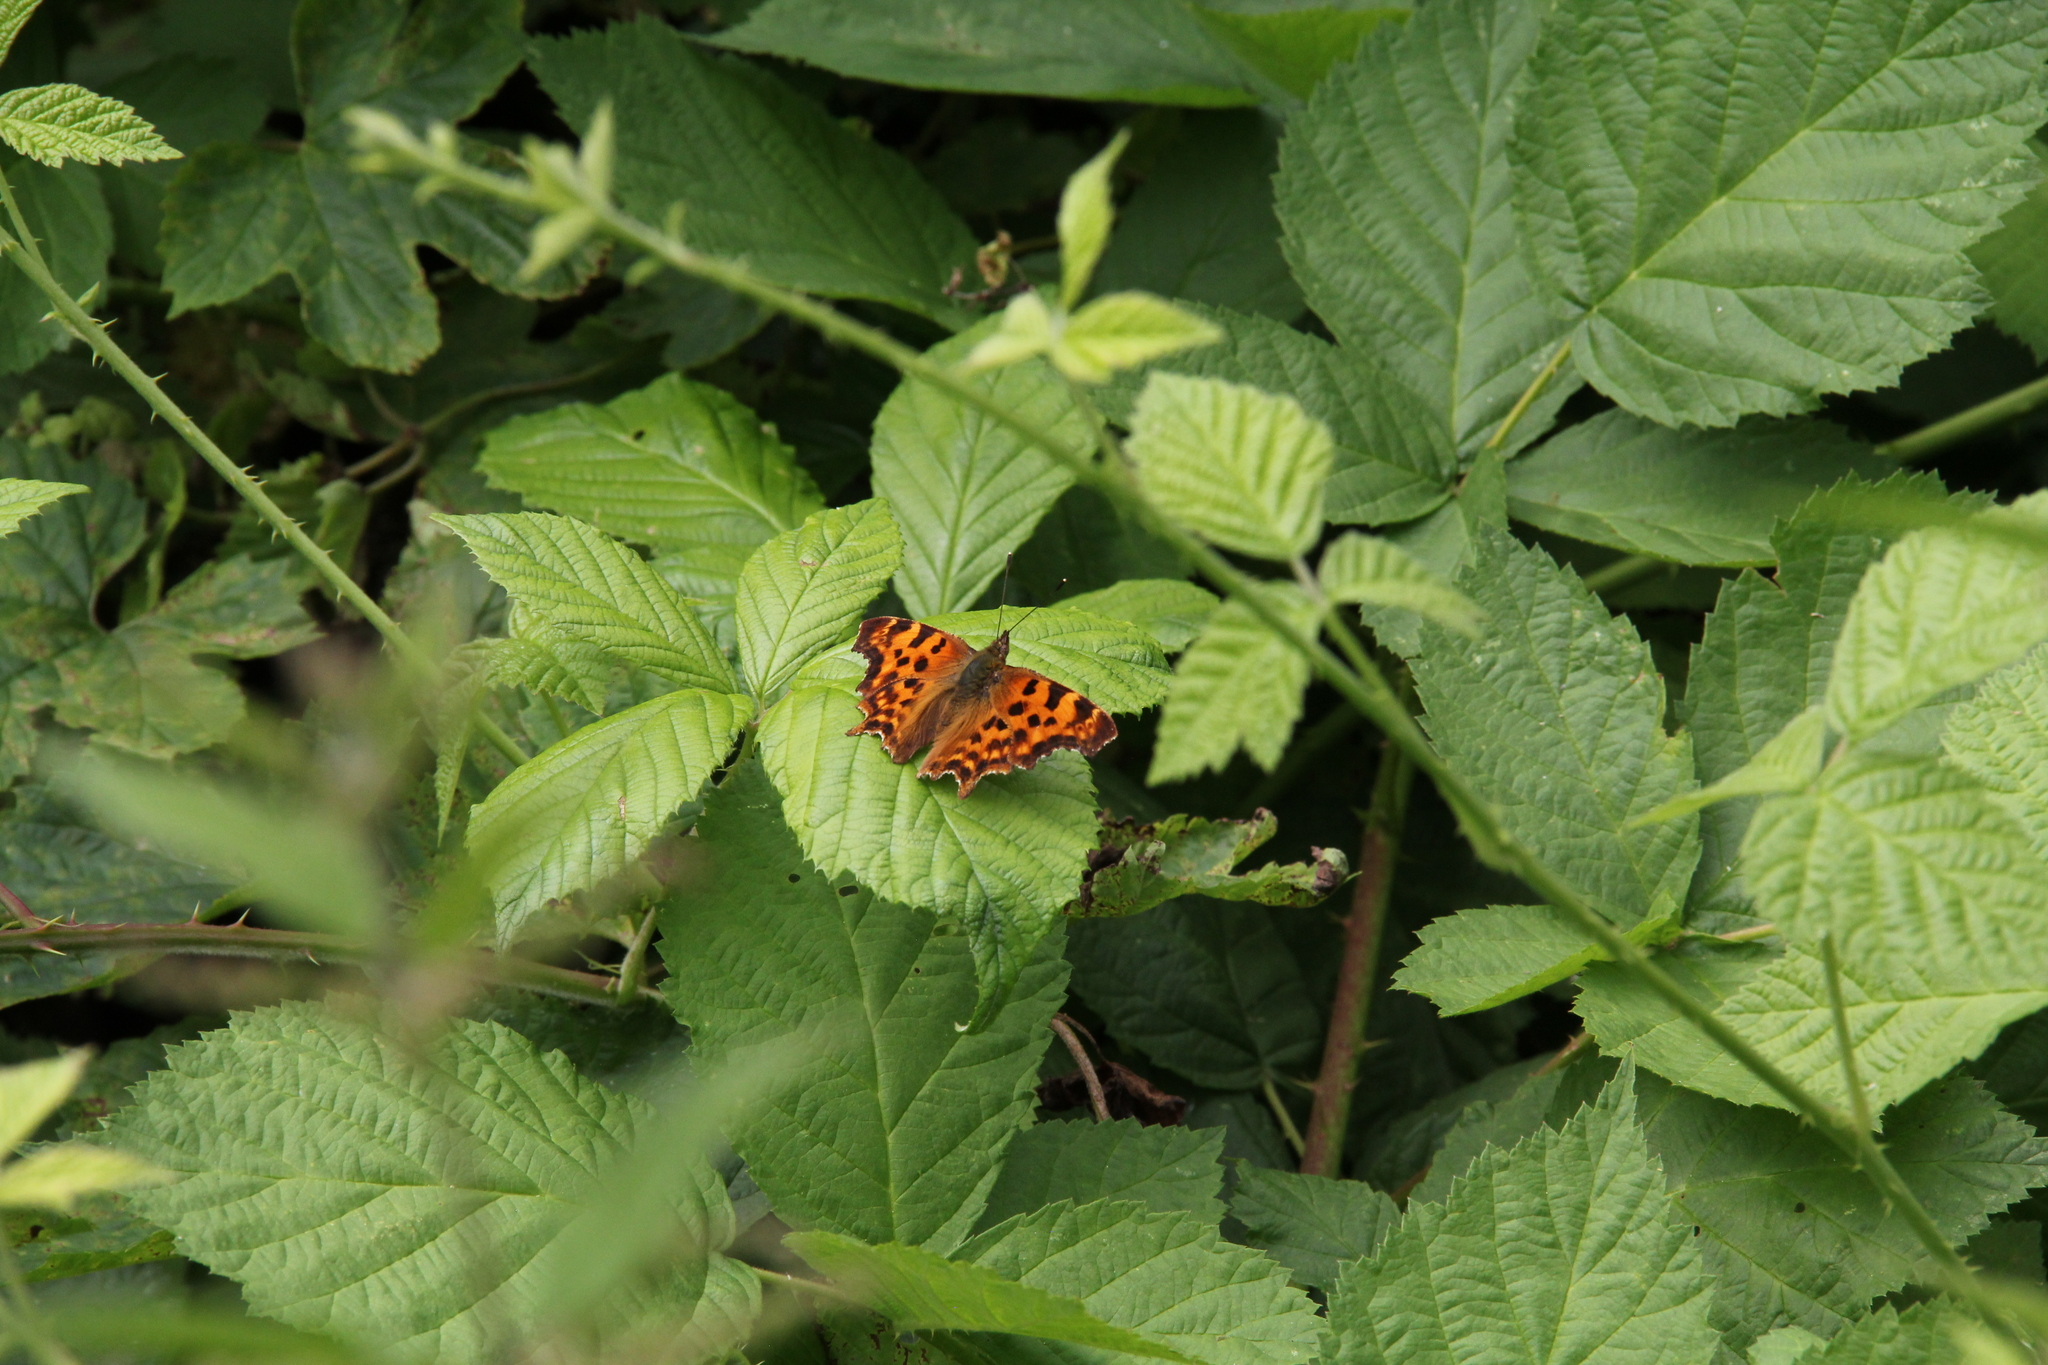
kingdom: Animalia
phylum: Arthropoda
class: Insecta
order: Lepidoptera
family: Nymphalidae
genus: Polygonia
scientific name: Polygonia c-album
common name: Comma
